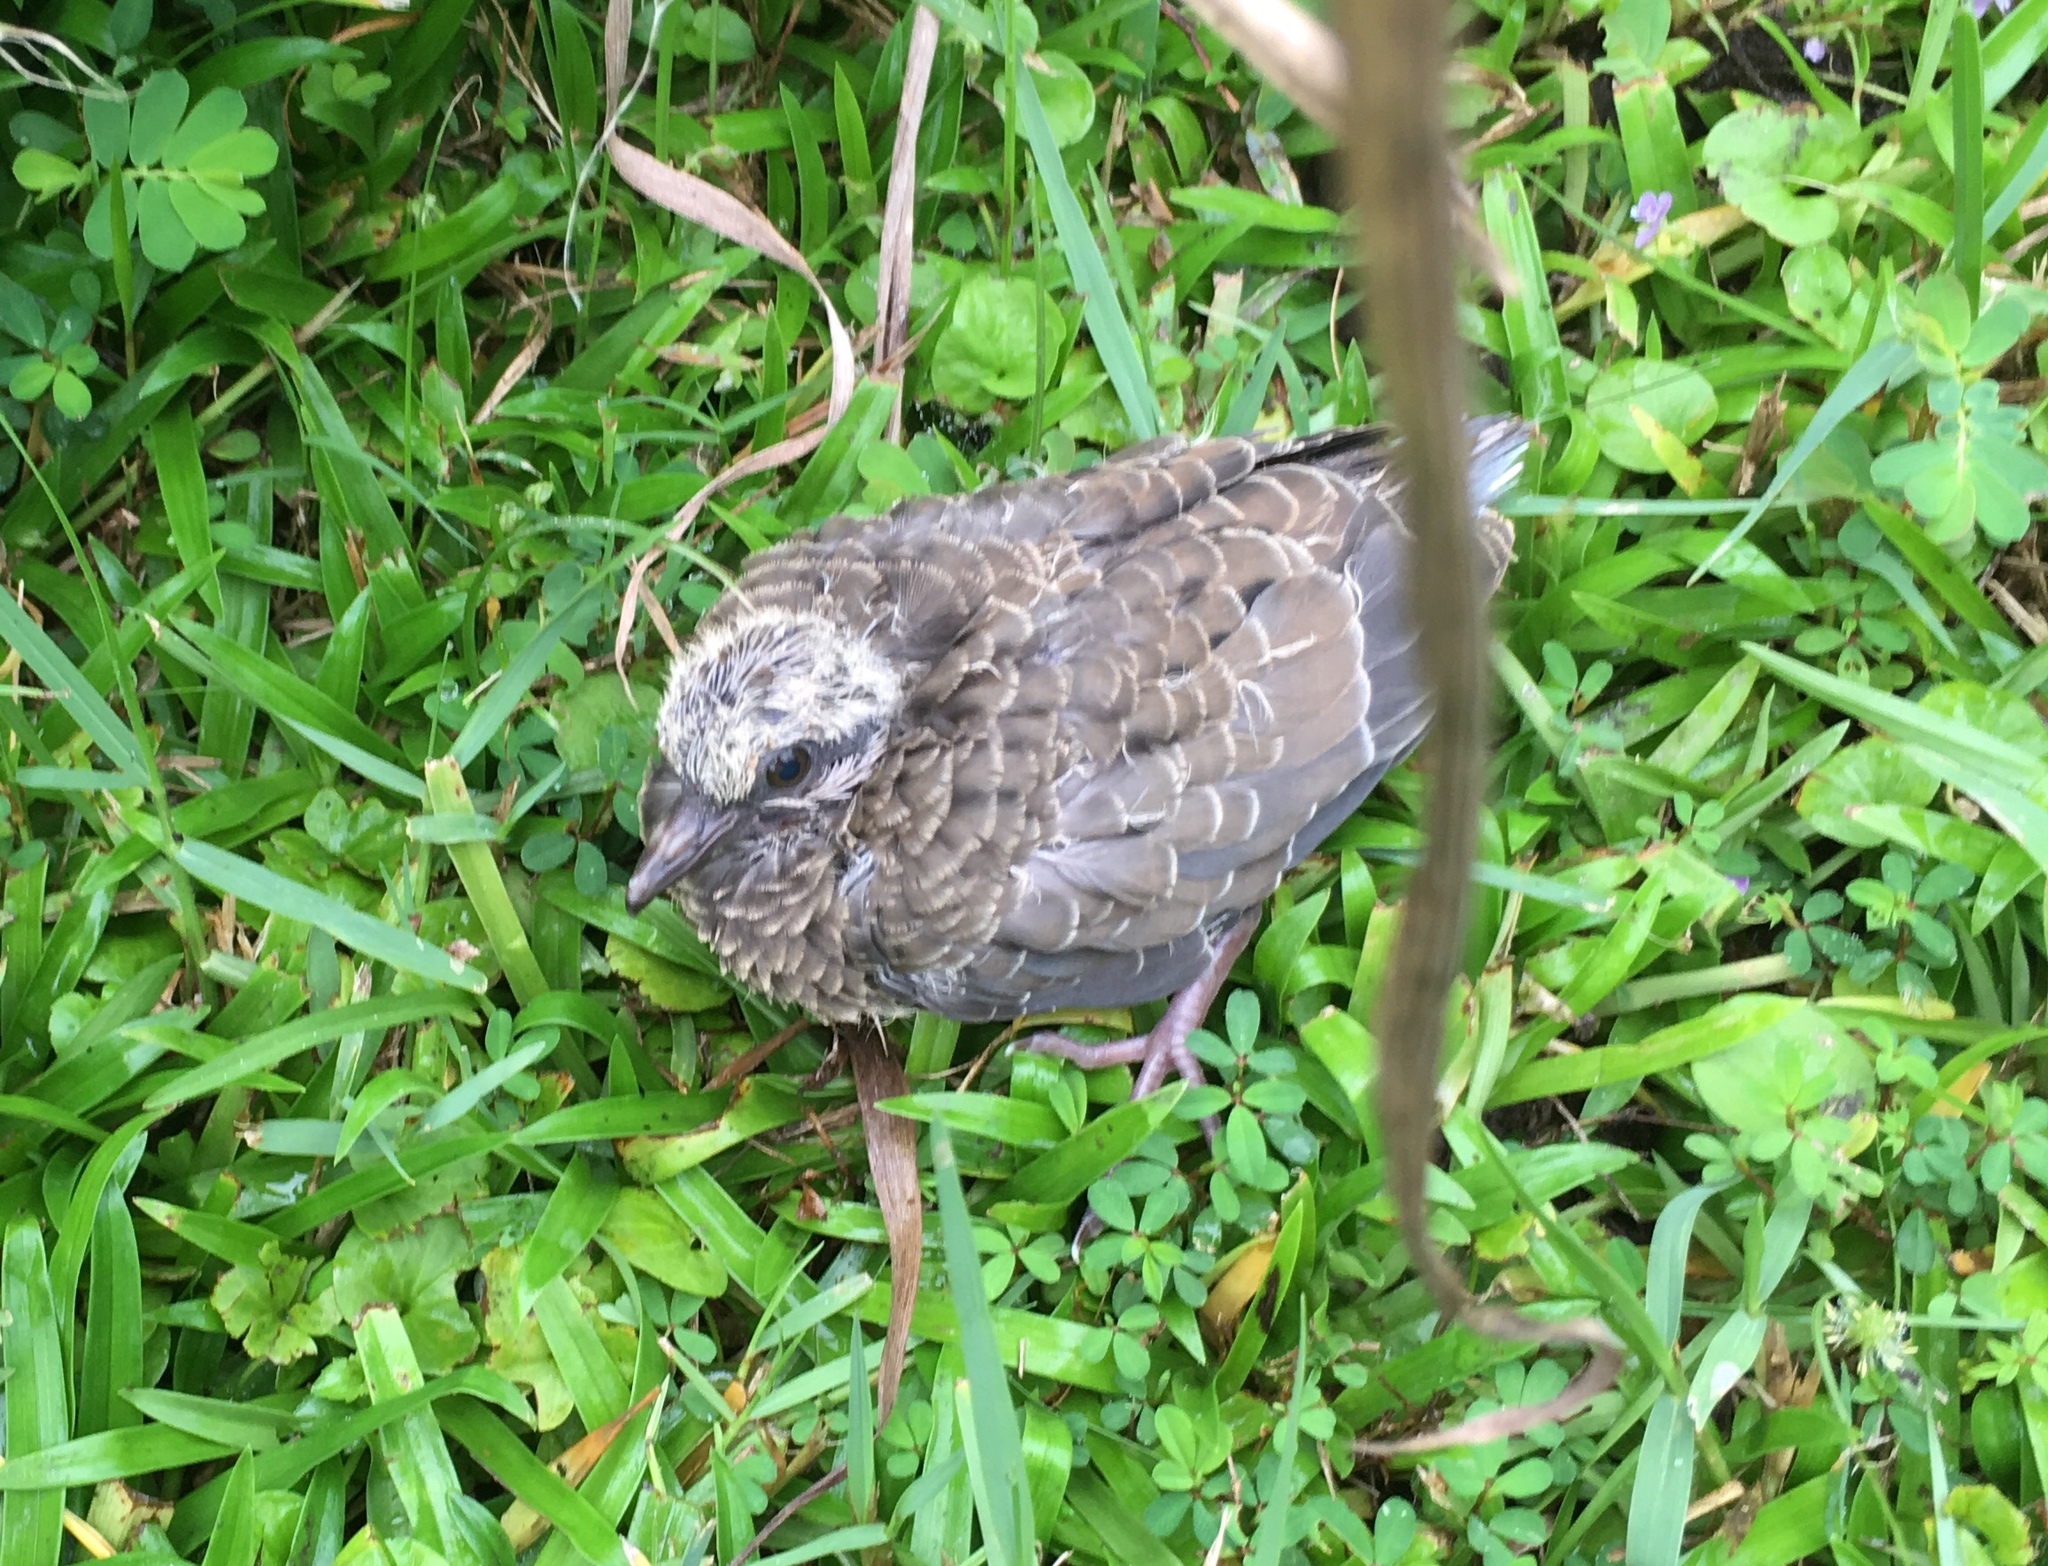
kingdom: Animalia
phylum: Chordata
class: Aves
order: Columbiformes
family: Columbidae
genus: Zenaida
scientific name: Zenaida macroura
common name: Mourning dove
